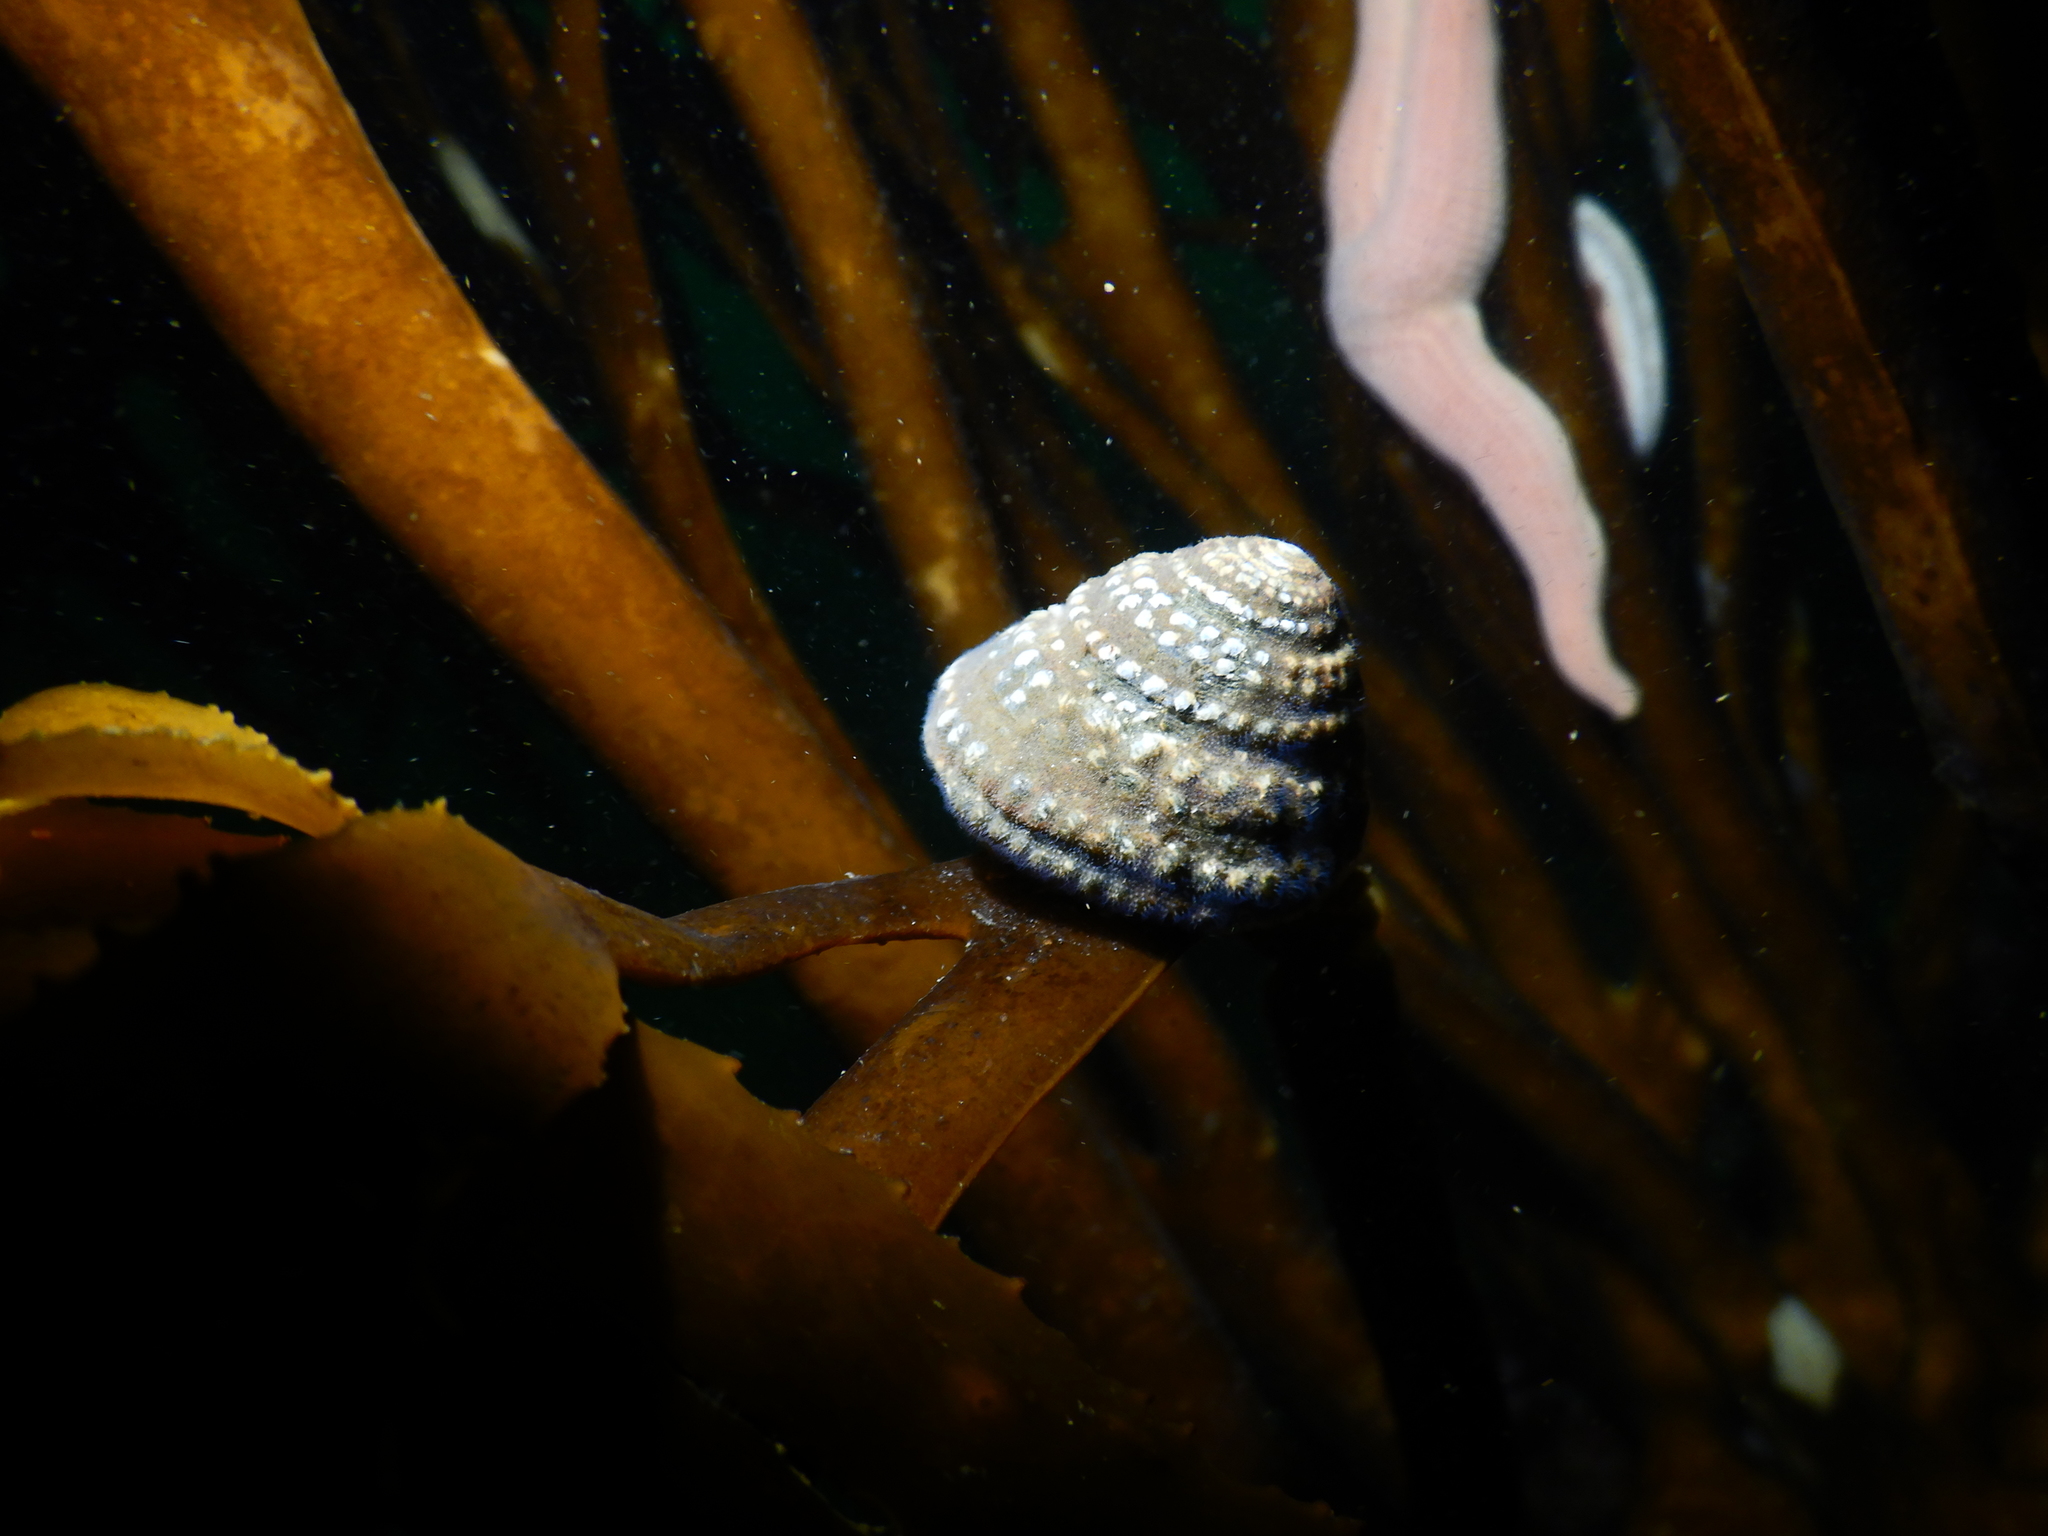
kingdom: Animalia
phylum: Mollusca
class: Gastropoda
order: Trochida
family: Tegulidae
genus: Tegula
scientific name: Tegula quadricostata
